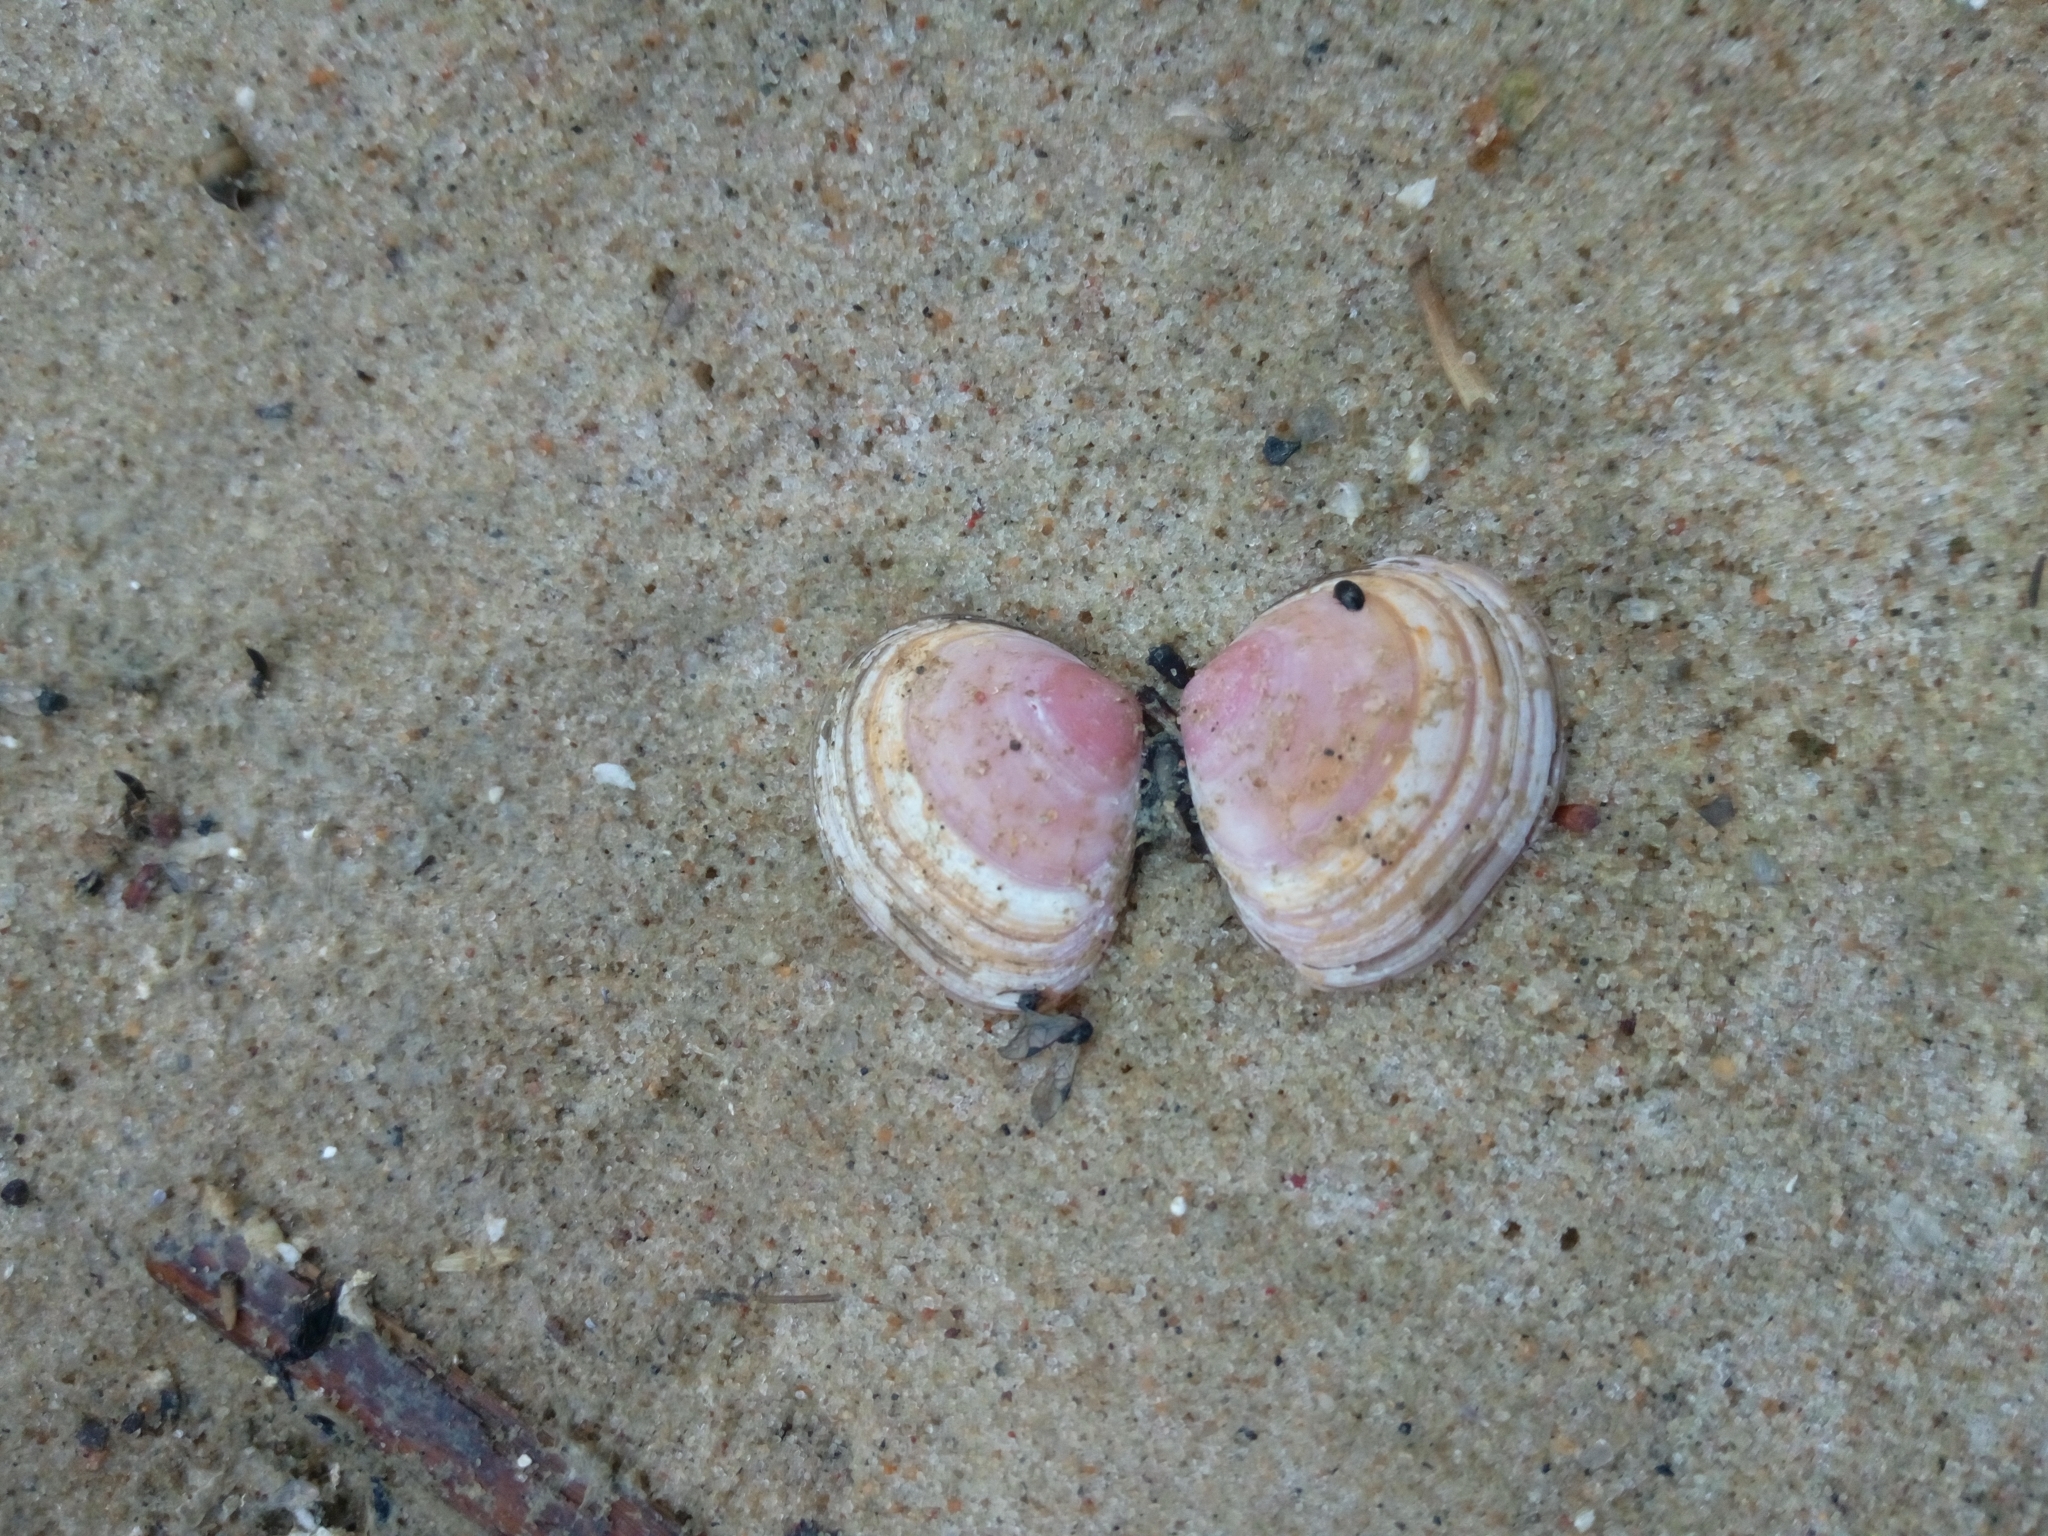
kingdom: Animalia
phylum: Mollusca
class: Bivalvia
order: Cardiida
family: Tellinidae
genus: Macoma
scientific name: Macoma balthica
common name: Baltic tellin
